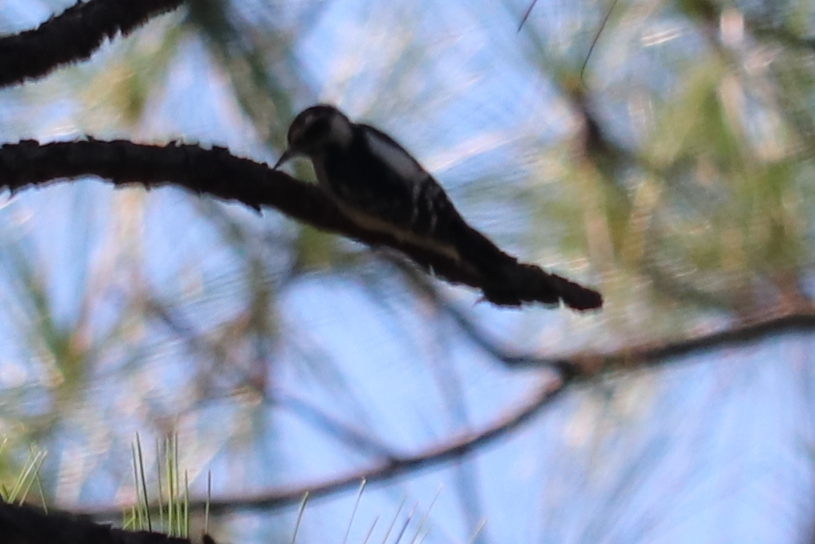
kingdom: Animalia
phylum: Chordata
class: Aves
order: Piciformes
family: Picidae
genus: Dryobates
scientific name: Dryobates pubescens
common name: Downy woodpecker
